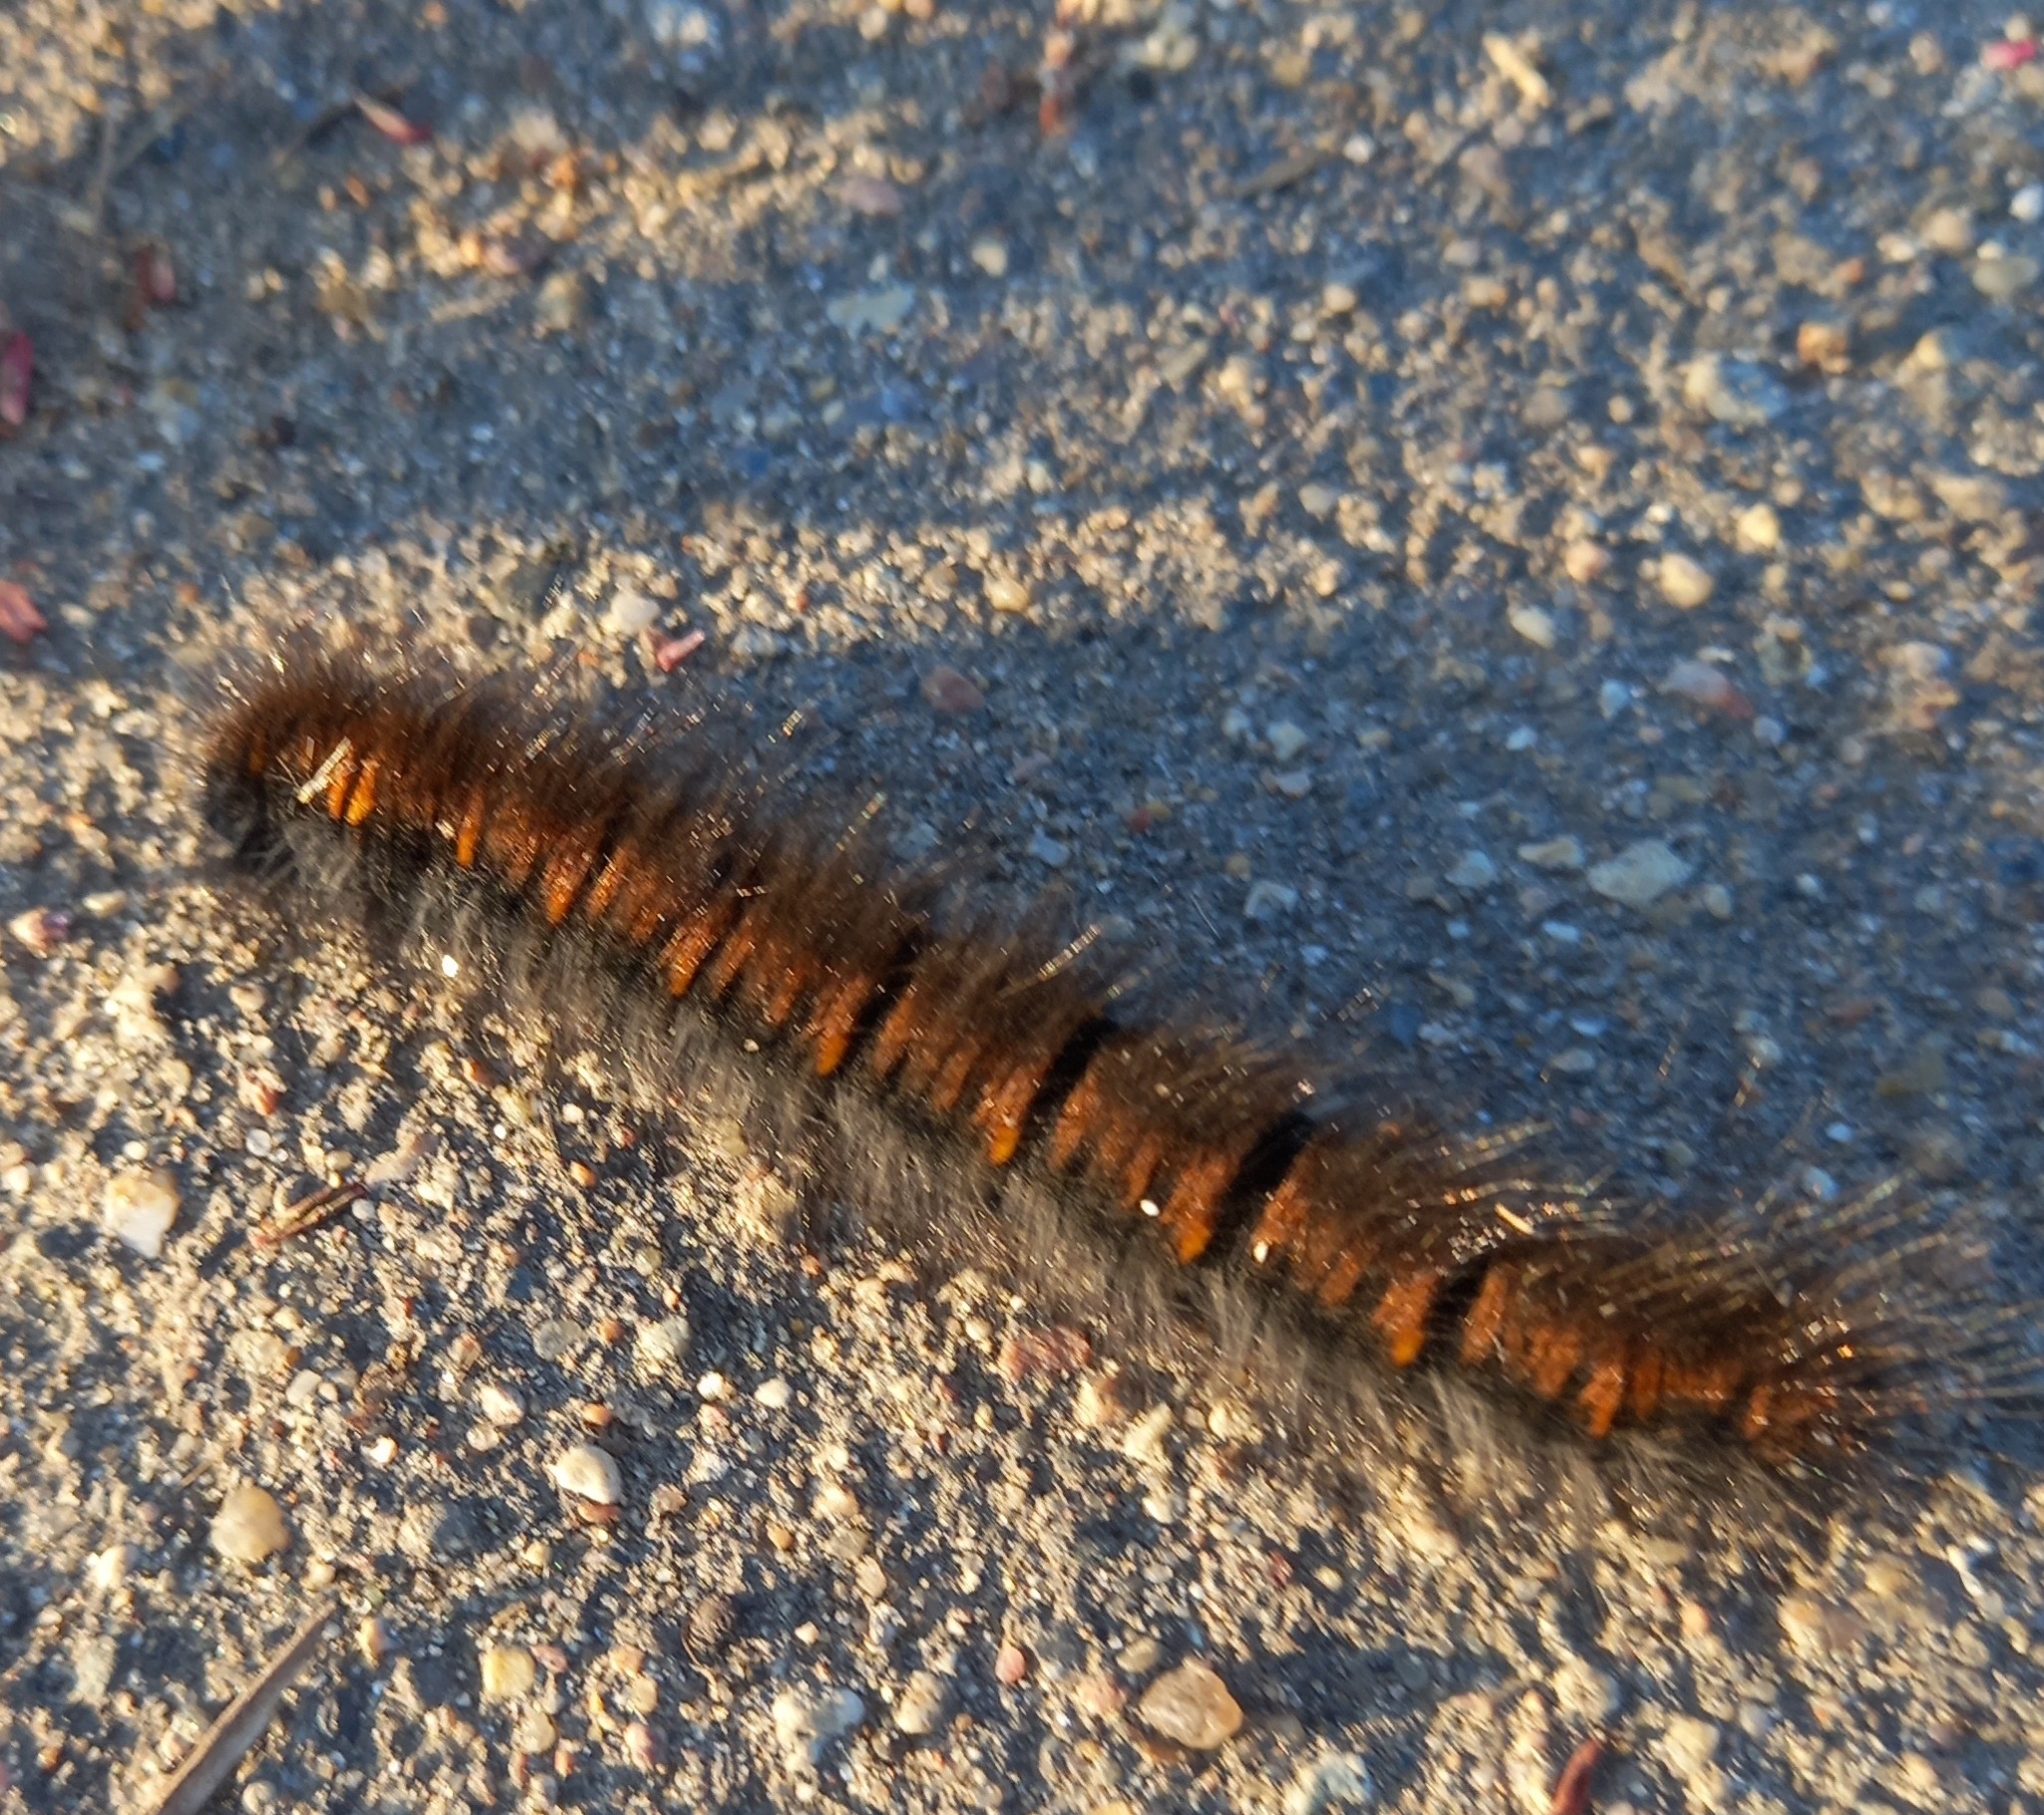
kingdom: Animalia
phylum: Arthropoda
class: Insecta
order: Lepidoptera
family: Lasiocampidae
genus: Macrothylacia
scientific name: Macrothylacia rubi
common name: Fox moth
